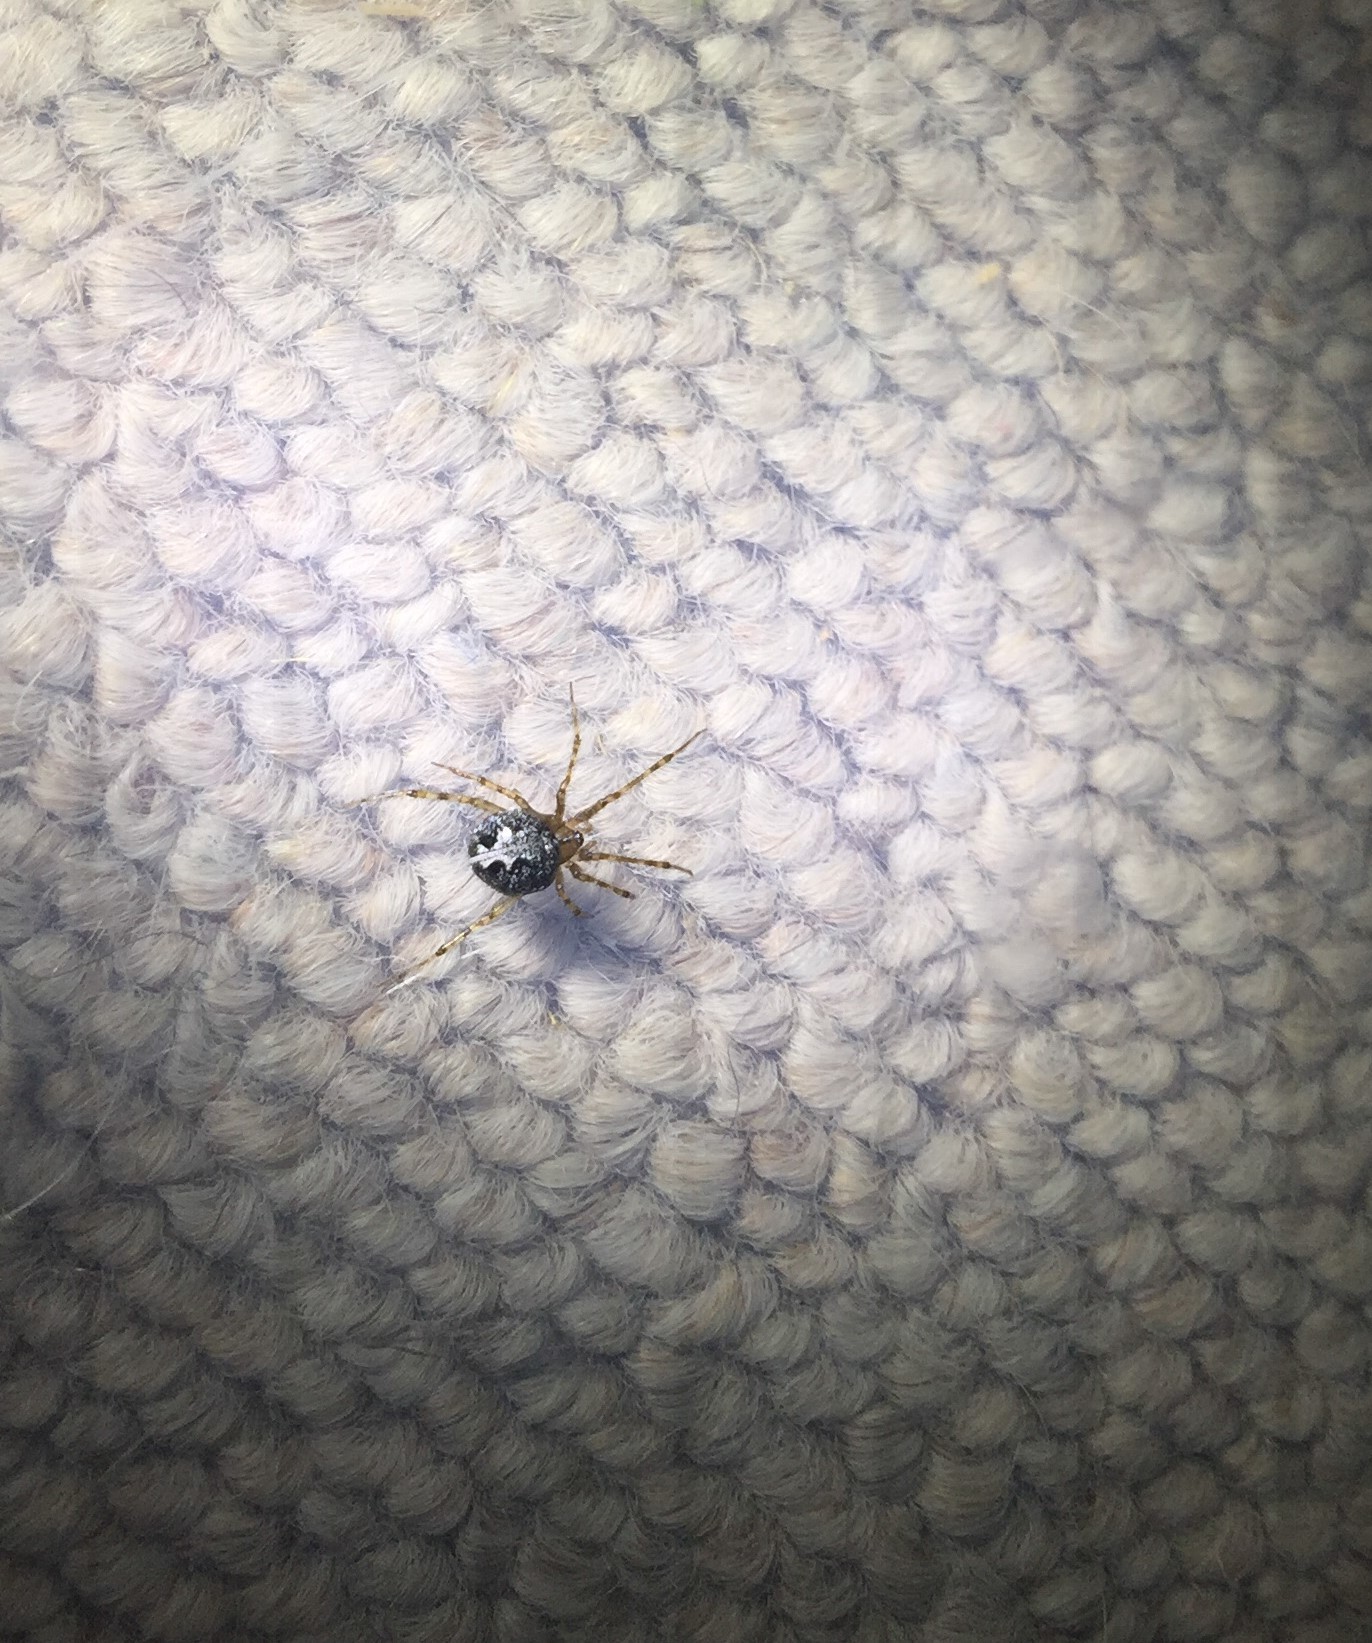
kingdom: Animalia
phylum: Arthropoda
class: Arachnida
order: Araneae
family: Theridiidae
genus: Theridion
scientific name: Theridion purcelli
